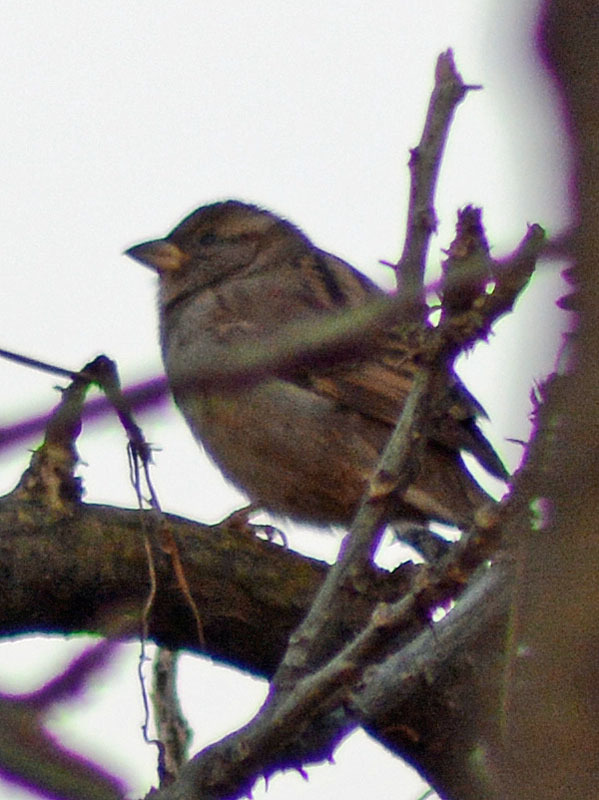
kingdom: Animalia
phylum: Chordata
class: Aves
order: Passeriformes
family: Passeridae
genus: Passer
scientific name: Passer domesticus
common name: House sparrow
